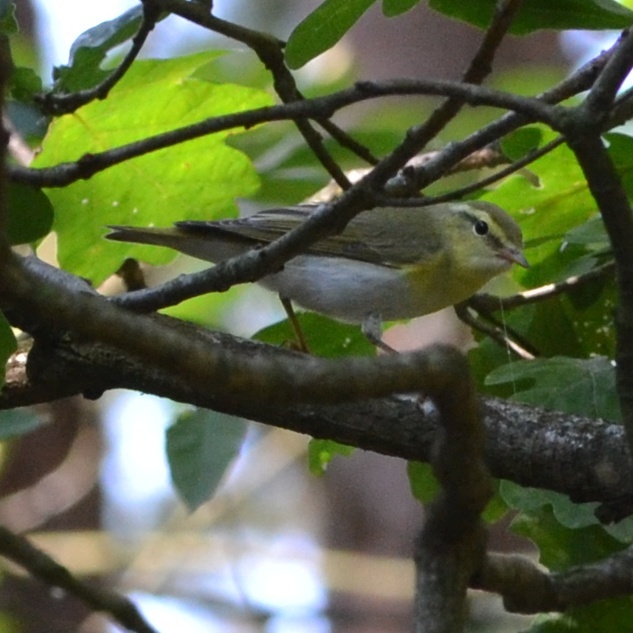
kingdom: Animalia
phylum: Chordata
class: Aves
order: Passeriformes
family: Phylloscopidae
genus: Phylloscopus
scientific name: Phylloscopus sibillatrix
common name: Wood warbler
